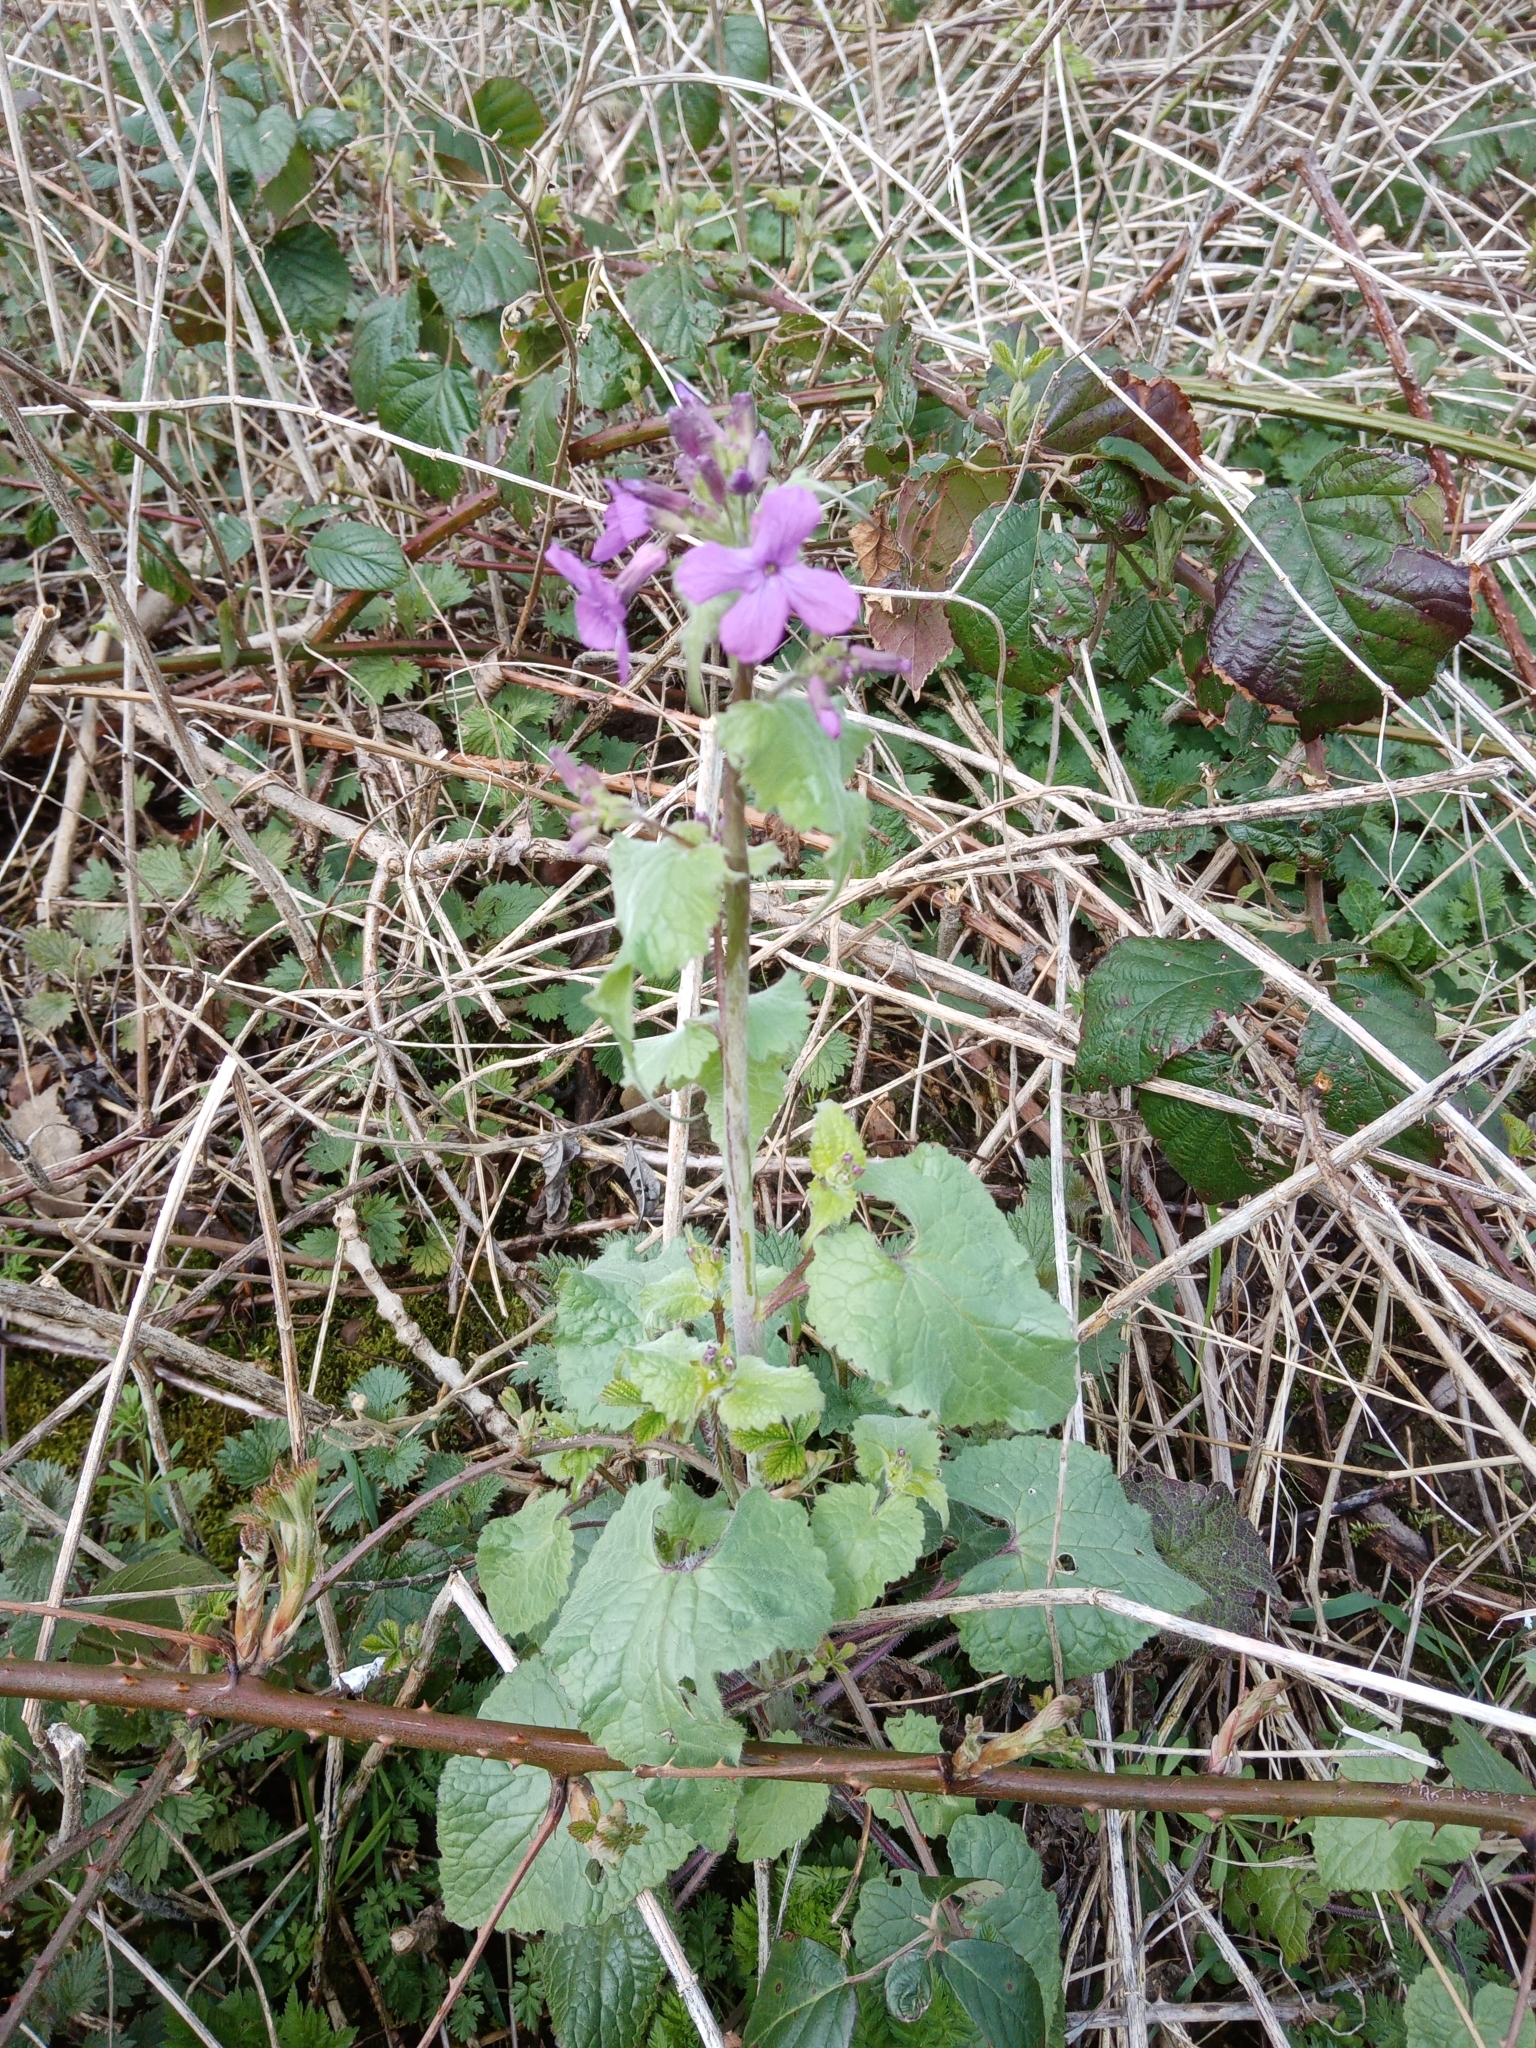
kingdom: Plantae
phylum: Tracheophyta
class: Magnoliopsida
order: Brassicales
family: Brassicaceae
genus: Lunaria
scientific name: Lunaria annua
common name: Honesty
